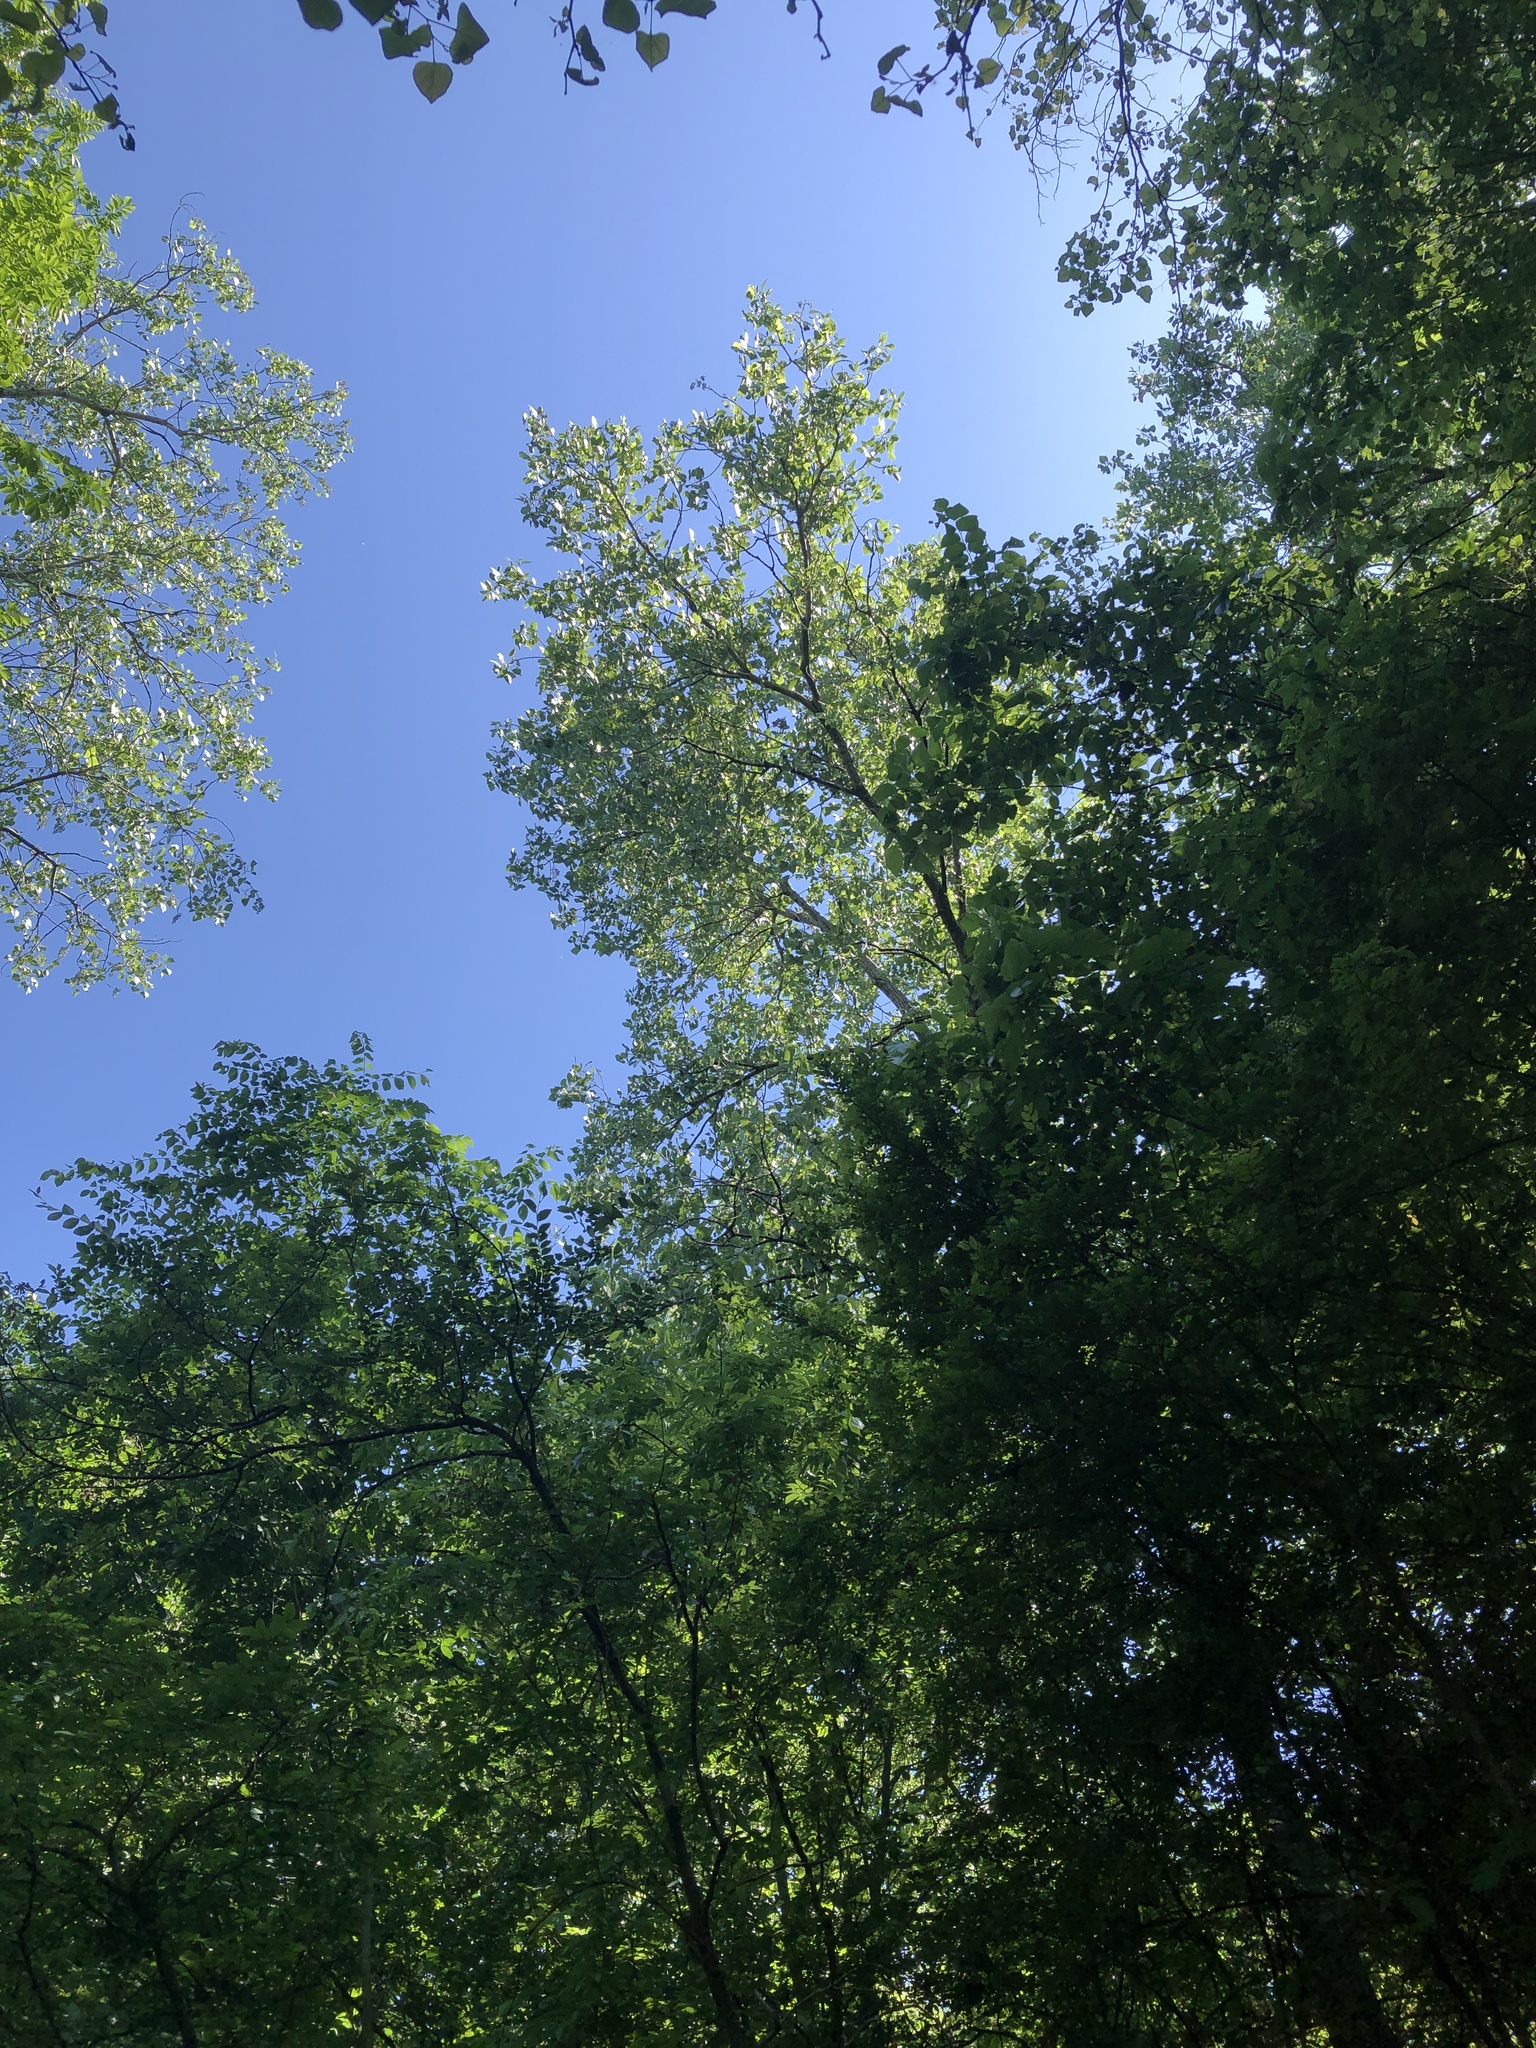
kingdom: Plantae
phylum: Tracheophyta
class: Magnoliopsida
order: Malpighiales
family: Salicaceae
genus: Populus
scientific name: Populus deltoides
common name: Eastern cottonwood
